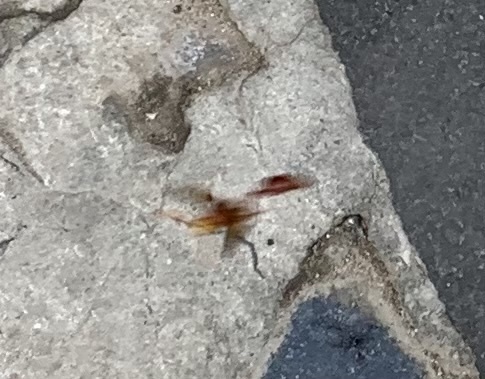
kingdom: Animalia
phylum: Arthropoda
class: Insecta
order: Hymenoptera
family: Eumenidae
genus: Delta
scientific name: Delta conoideum
